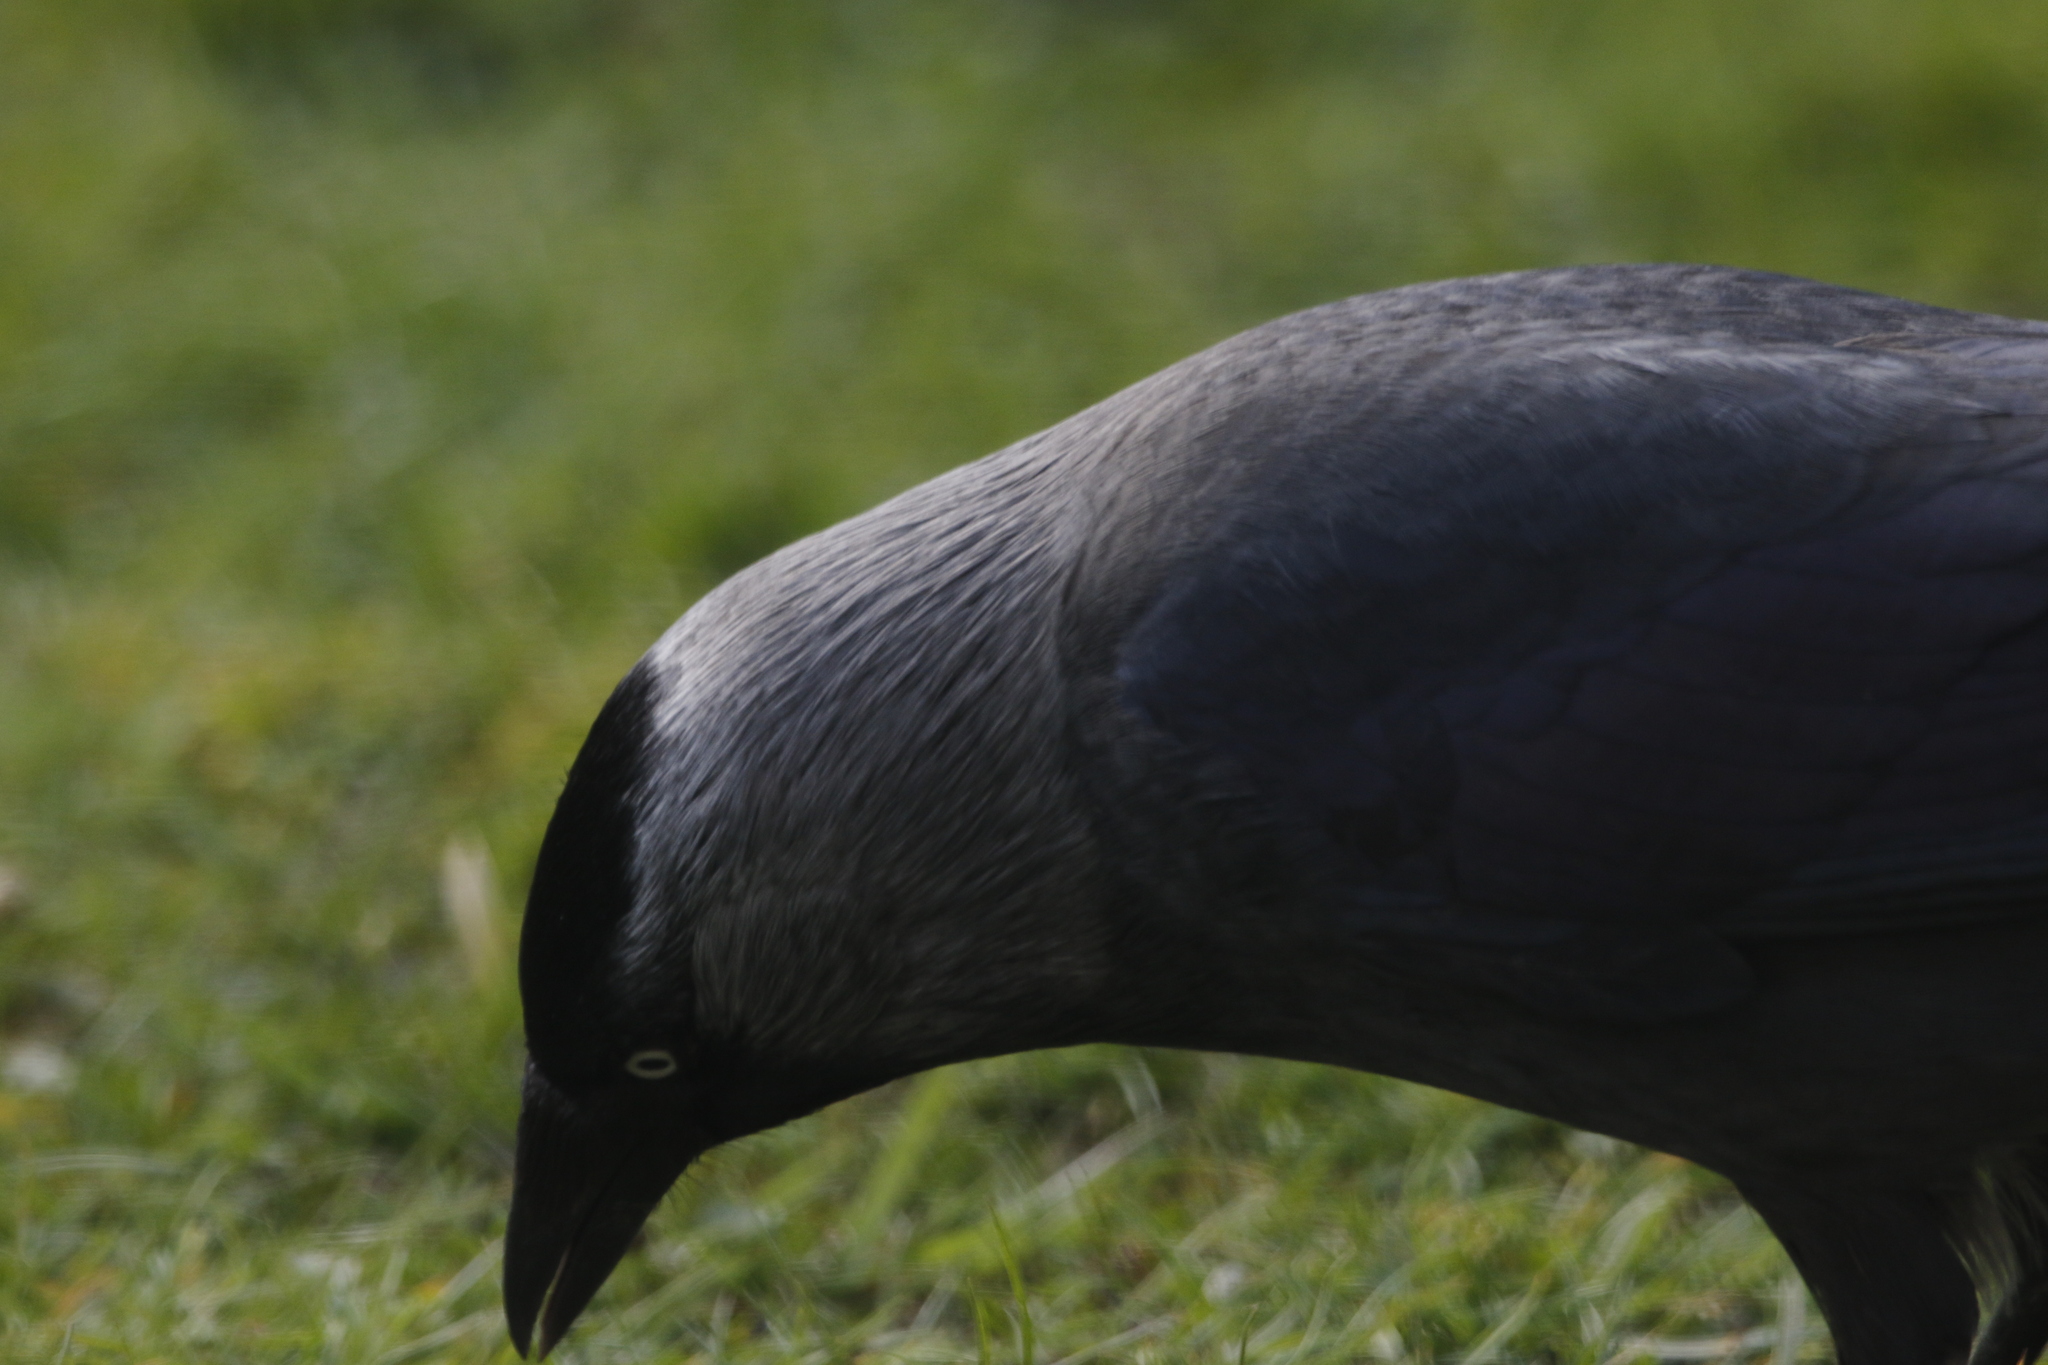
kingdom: Animalia
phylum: Chordata
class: Aves
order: Passeriformes
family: Corvidae
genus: Coloeus
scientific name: Coloeus monedula
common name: Western jackdaw
